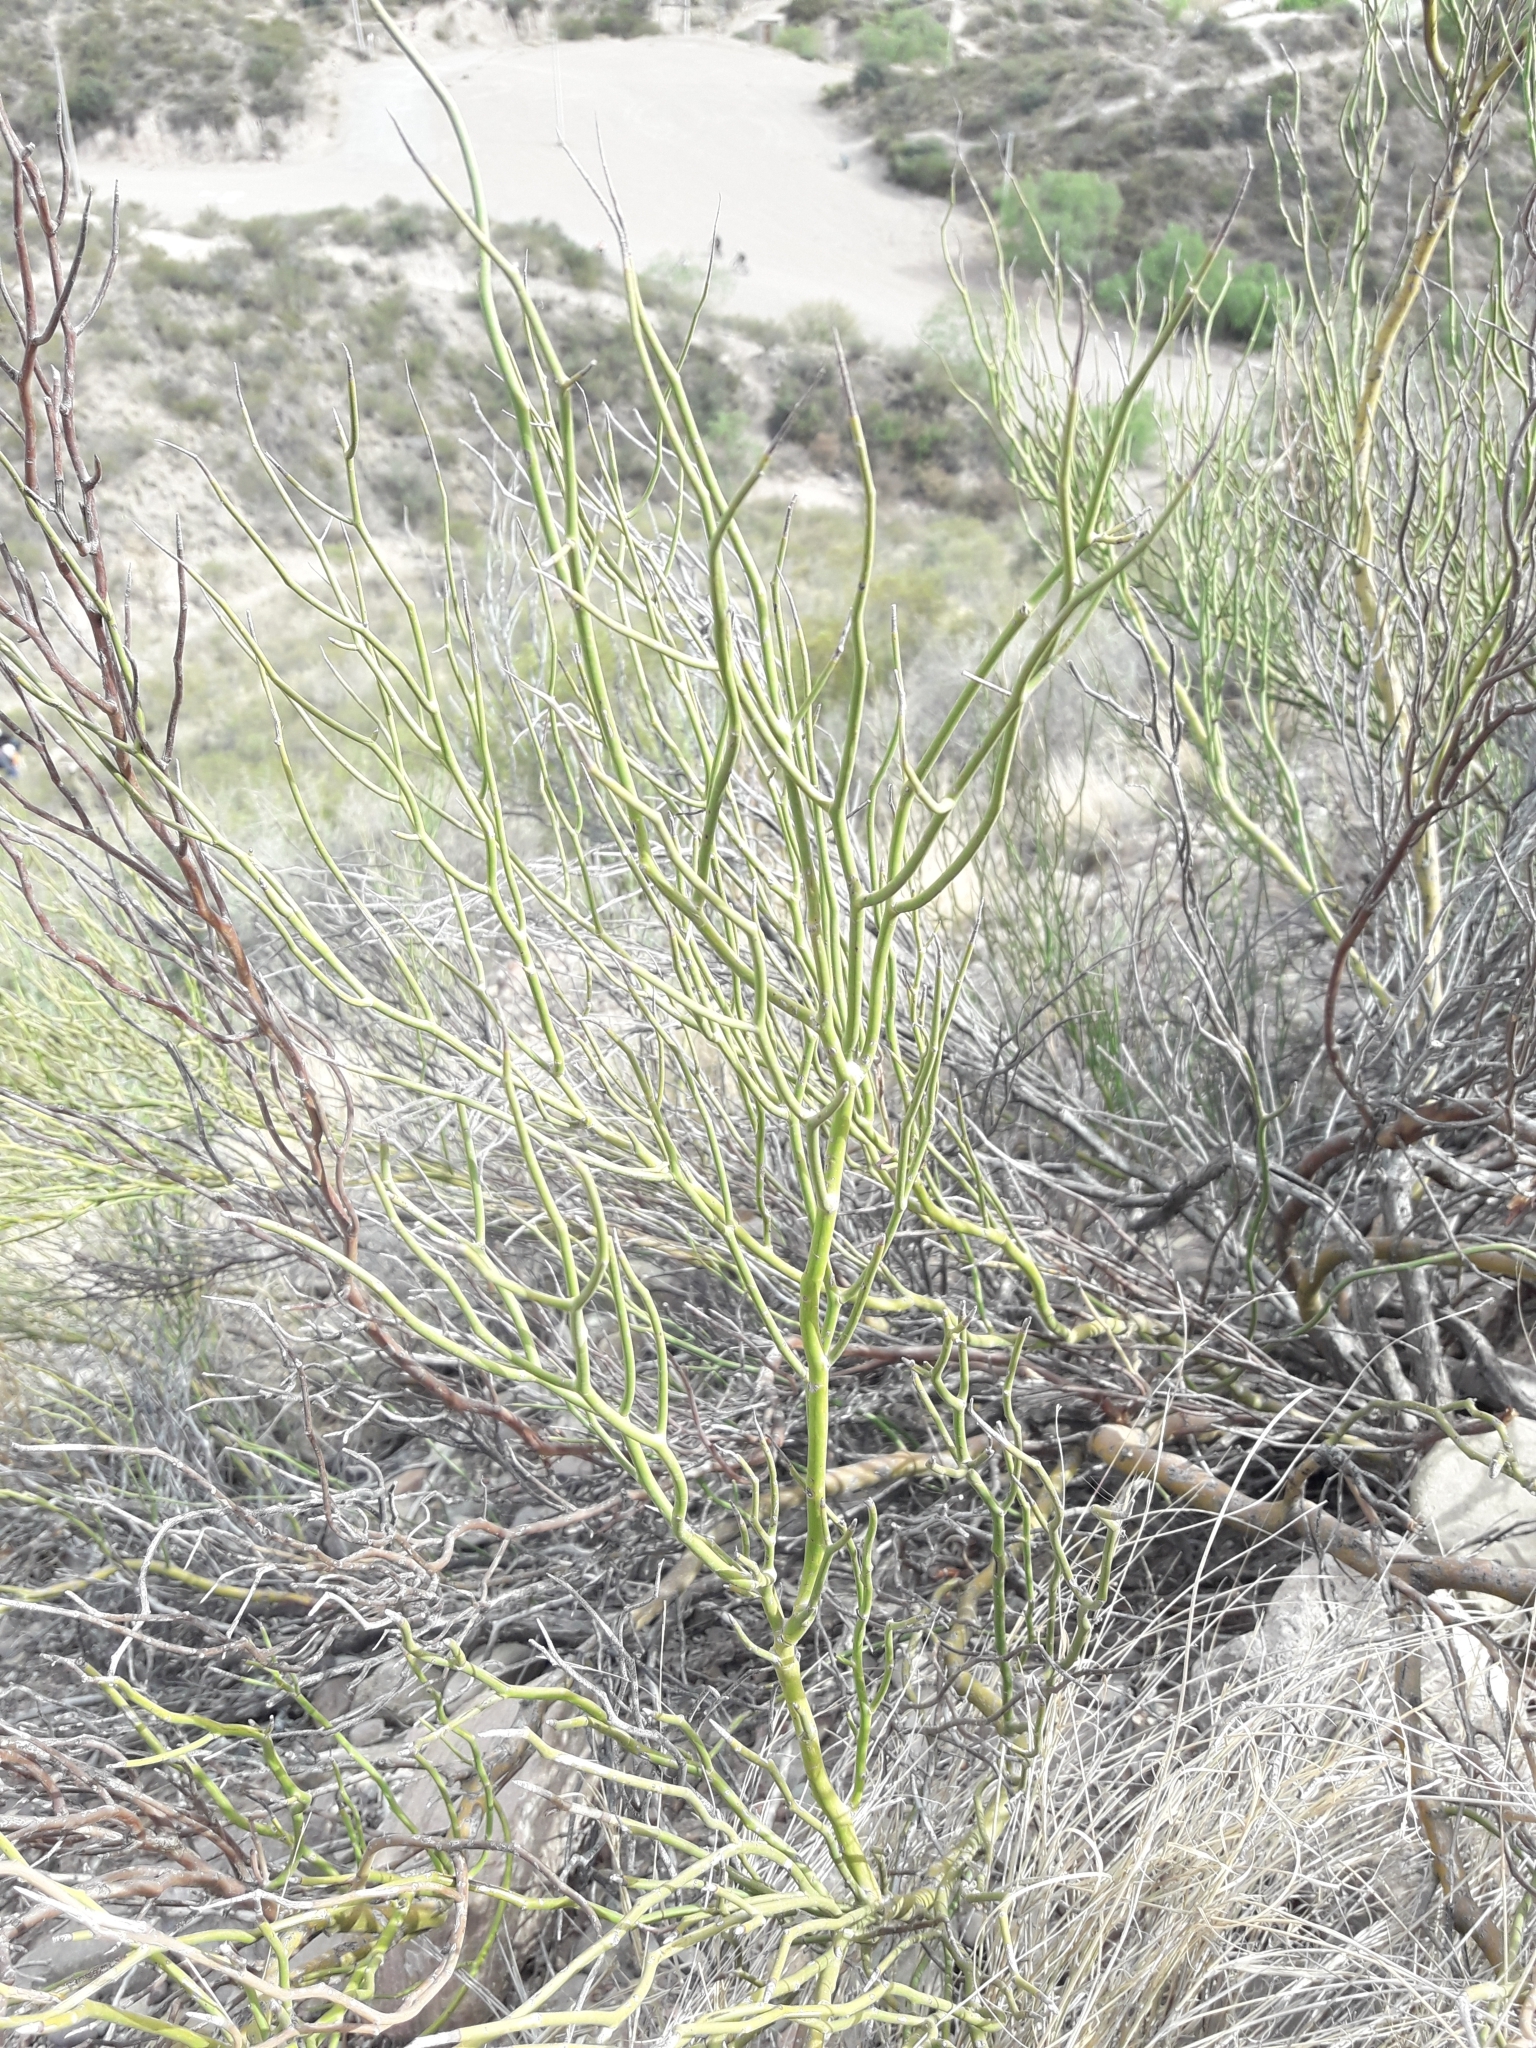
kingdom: Plantae
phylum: Tracheophyta
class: Magnoliopsida
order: Fabales
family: Fabaceae
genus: Senna
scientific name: Senna aphylla
